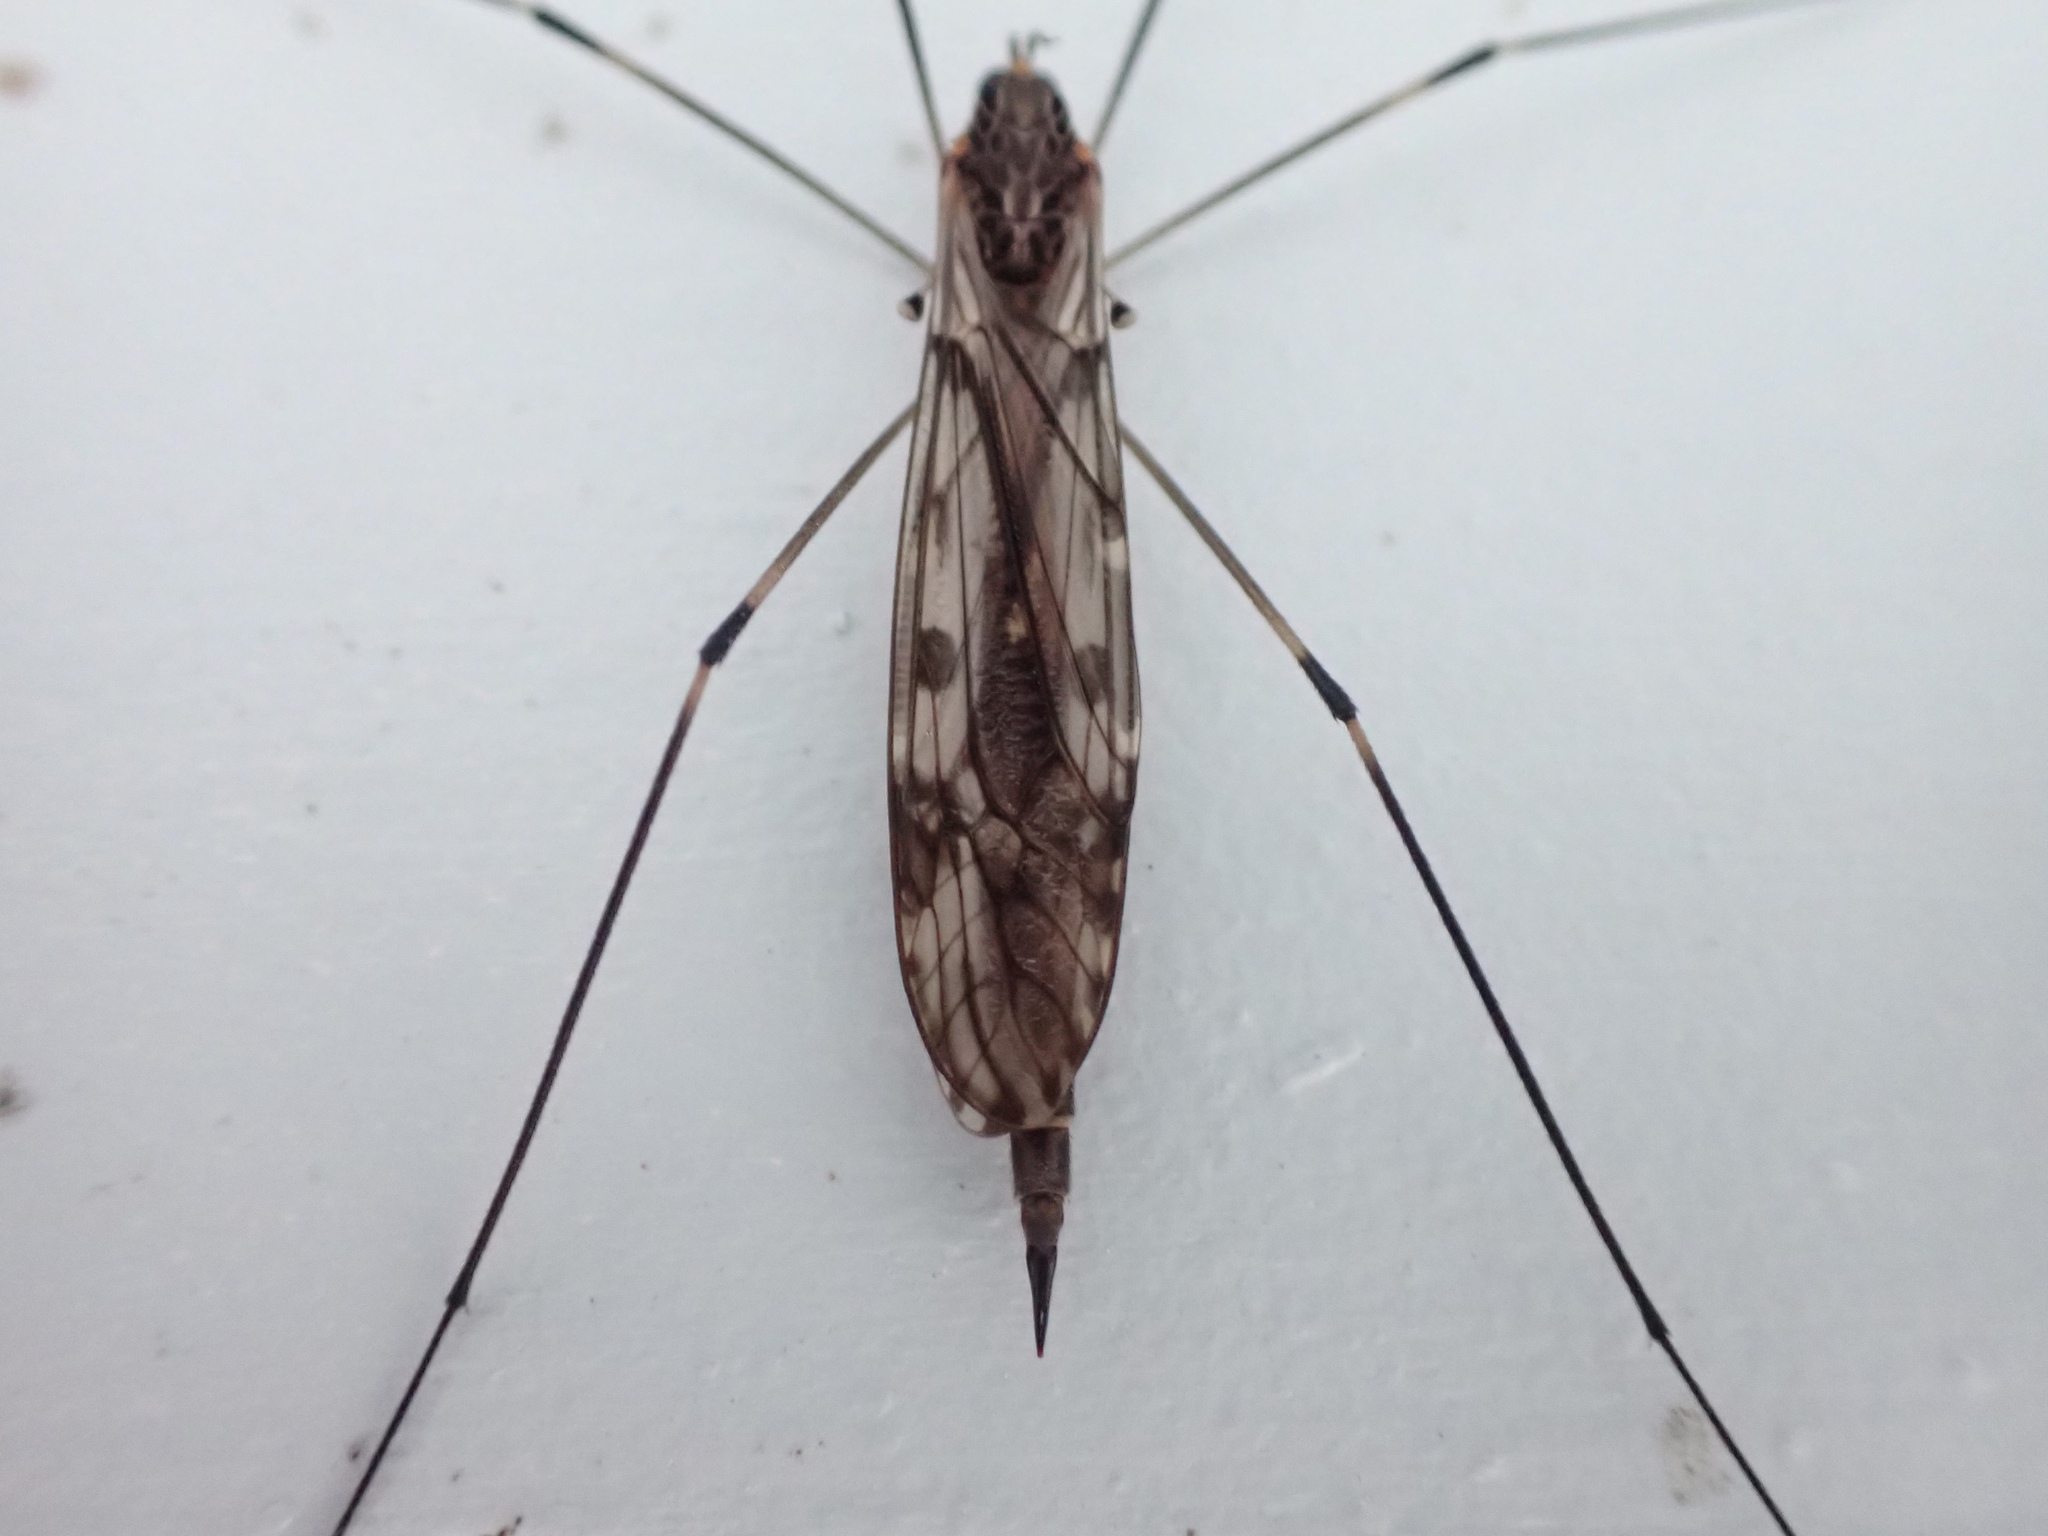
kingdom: Animalia
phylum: Arthropoda
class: Insecta
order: Diptera
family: Tipulidae
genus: Tipula
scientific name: Tipula abdominalis
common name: Giant crane fly
